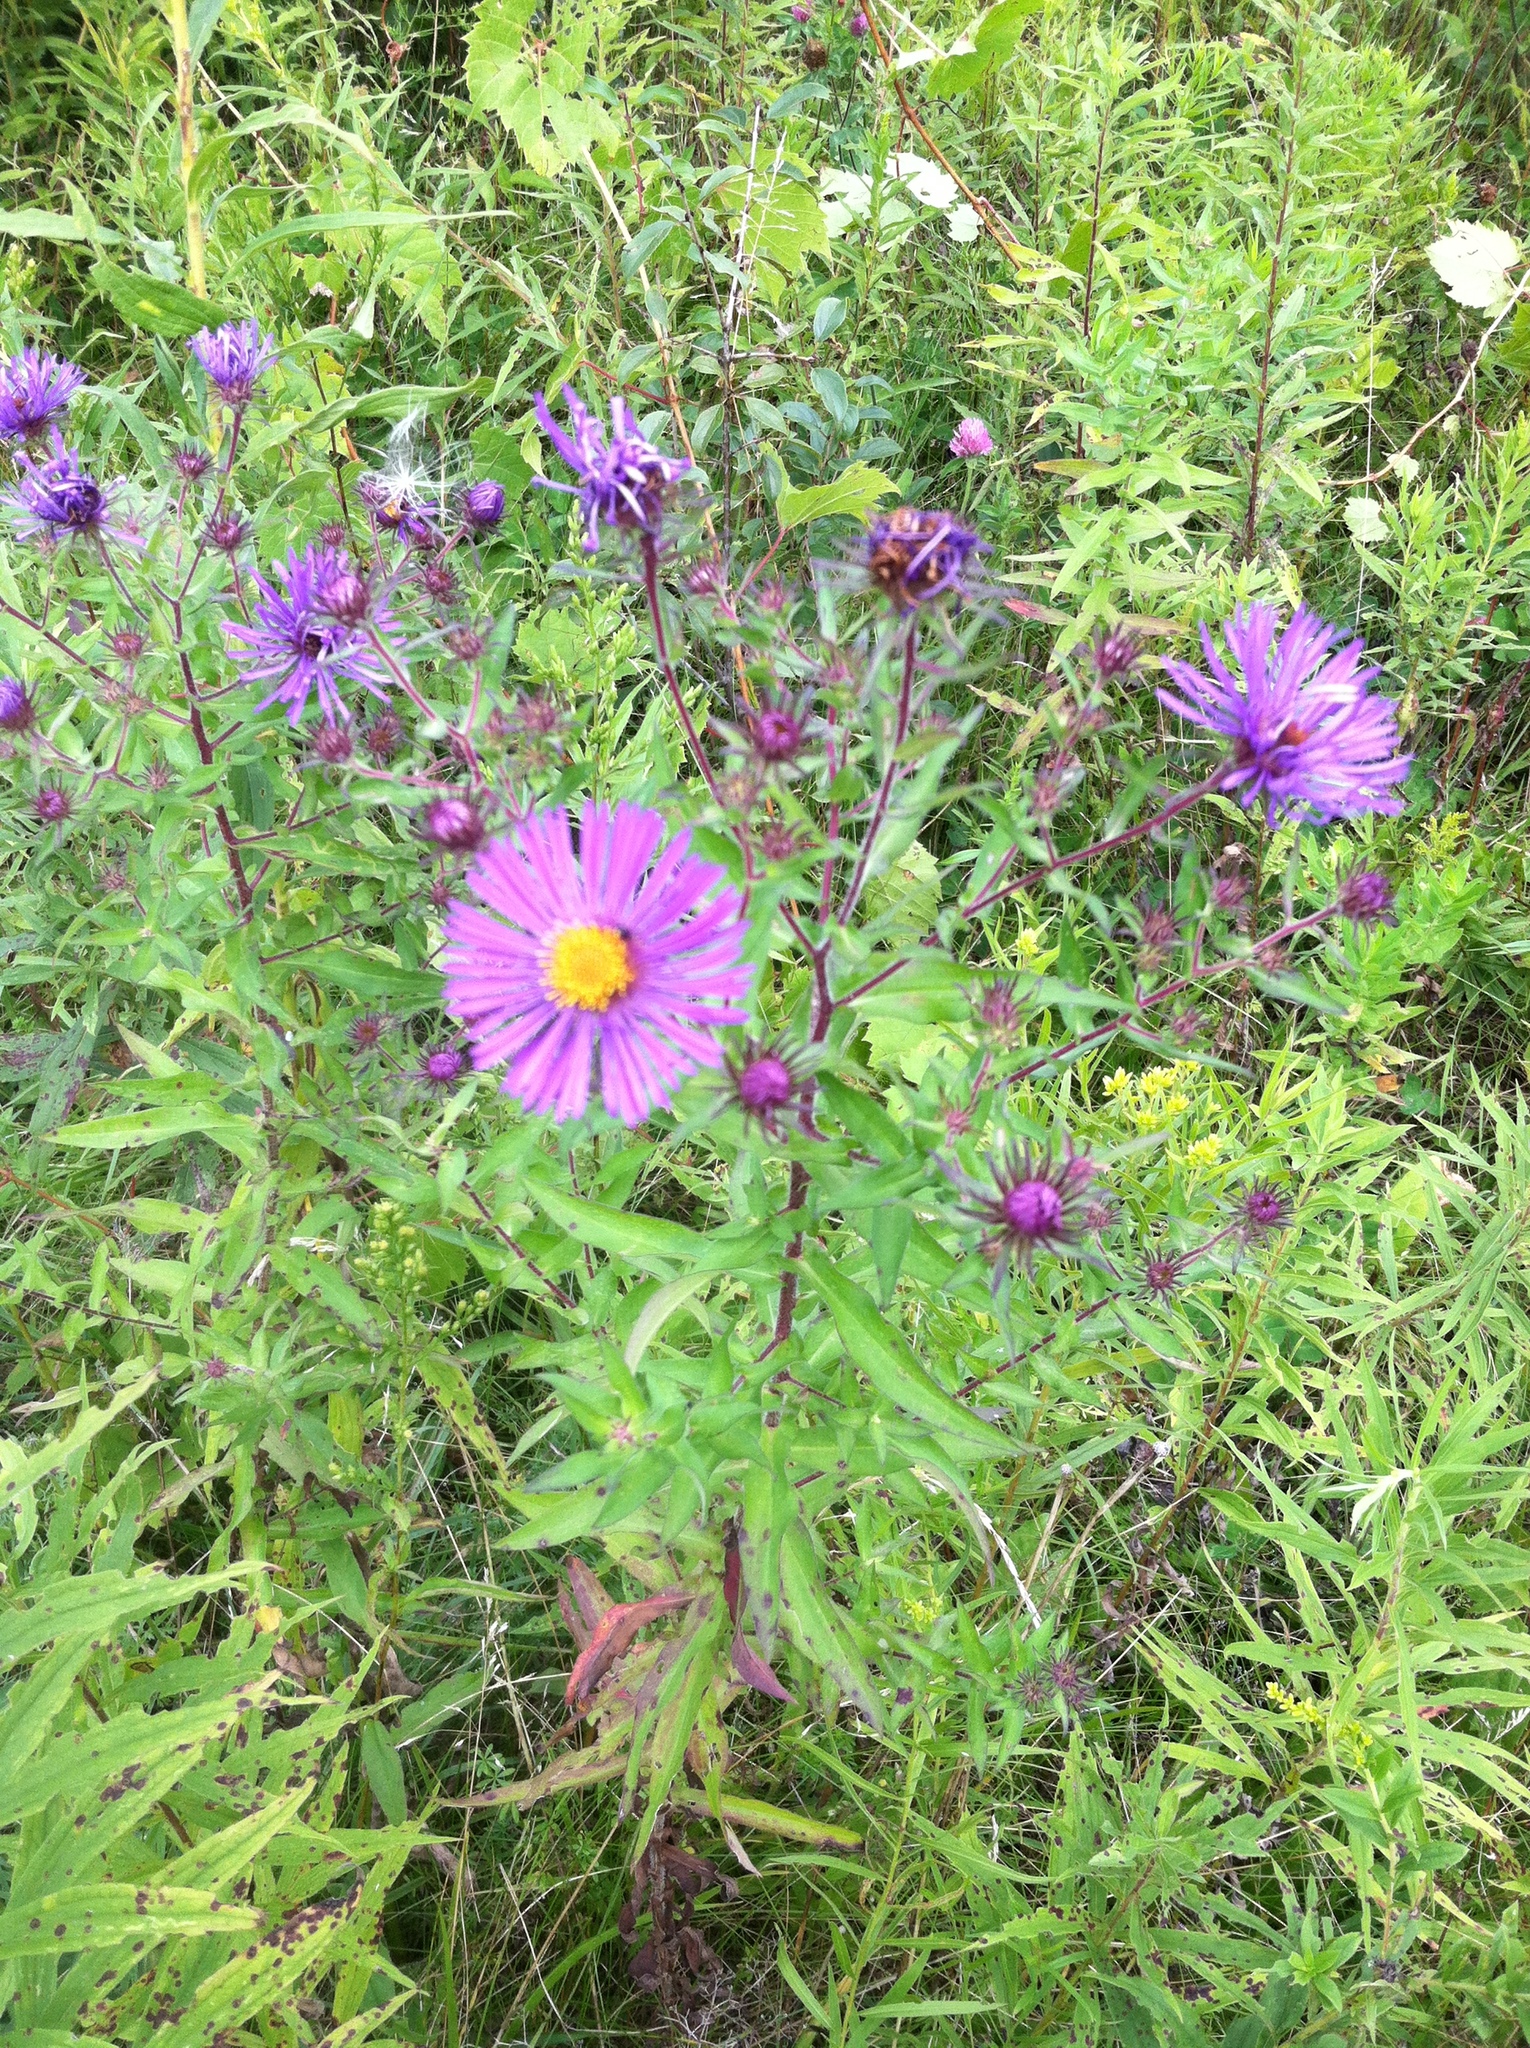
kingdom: Plantae
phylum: Tracheophyta
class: Magnoliopsida
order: Asterales
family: Asteraceae
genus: Symphyotrichum
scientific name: Symphyotrichum novae-angliae
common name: Michaelmas daisy
